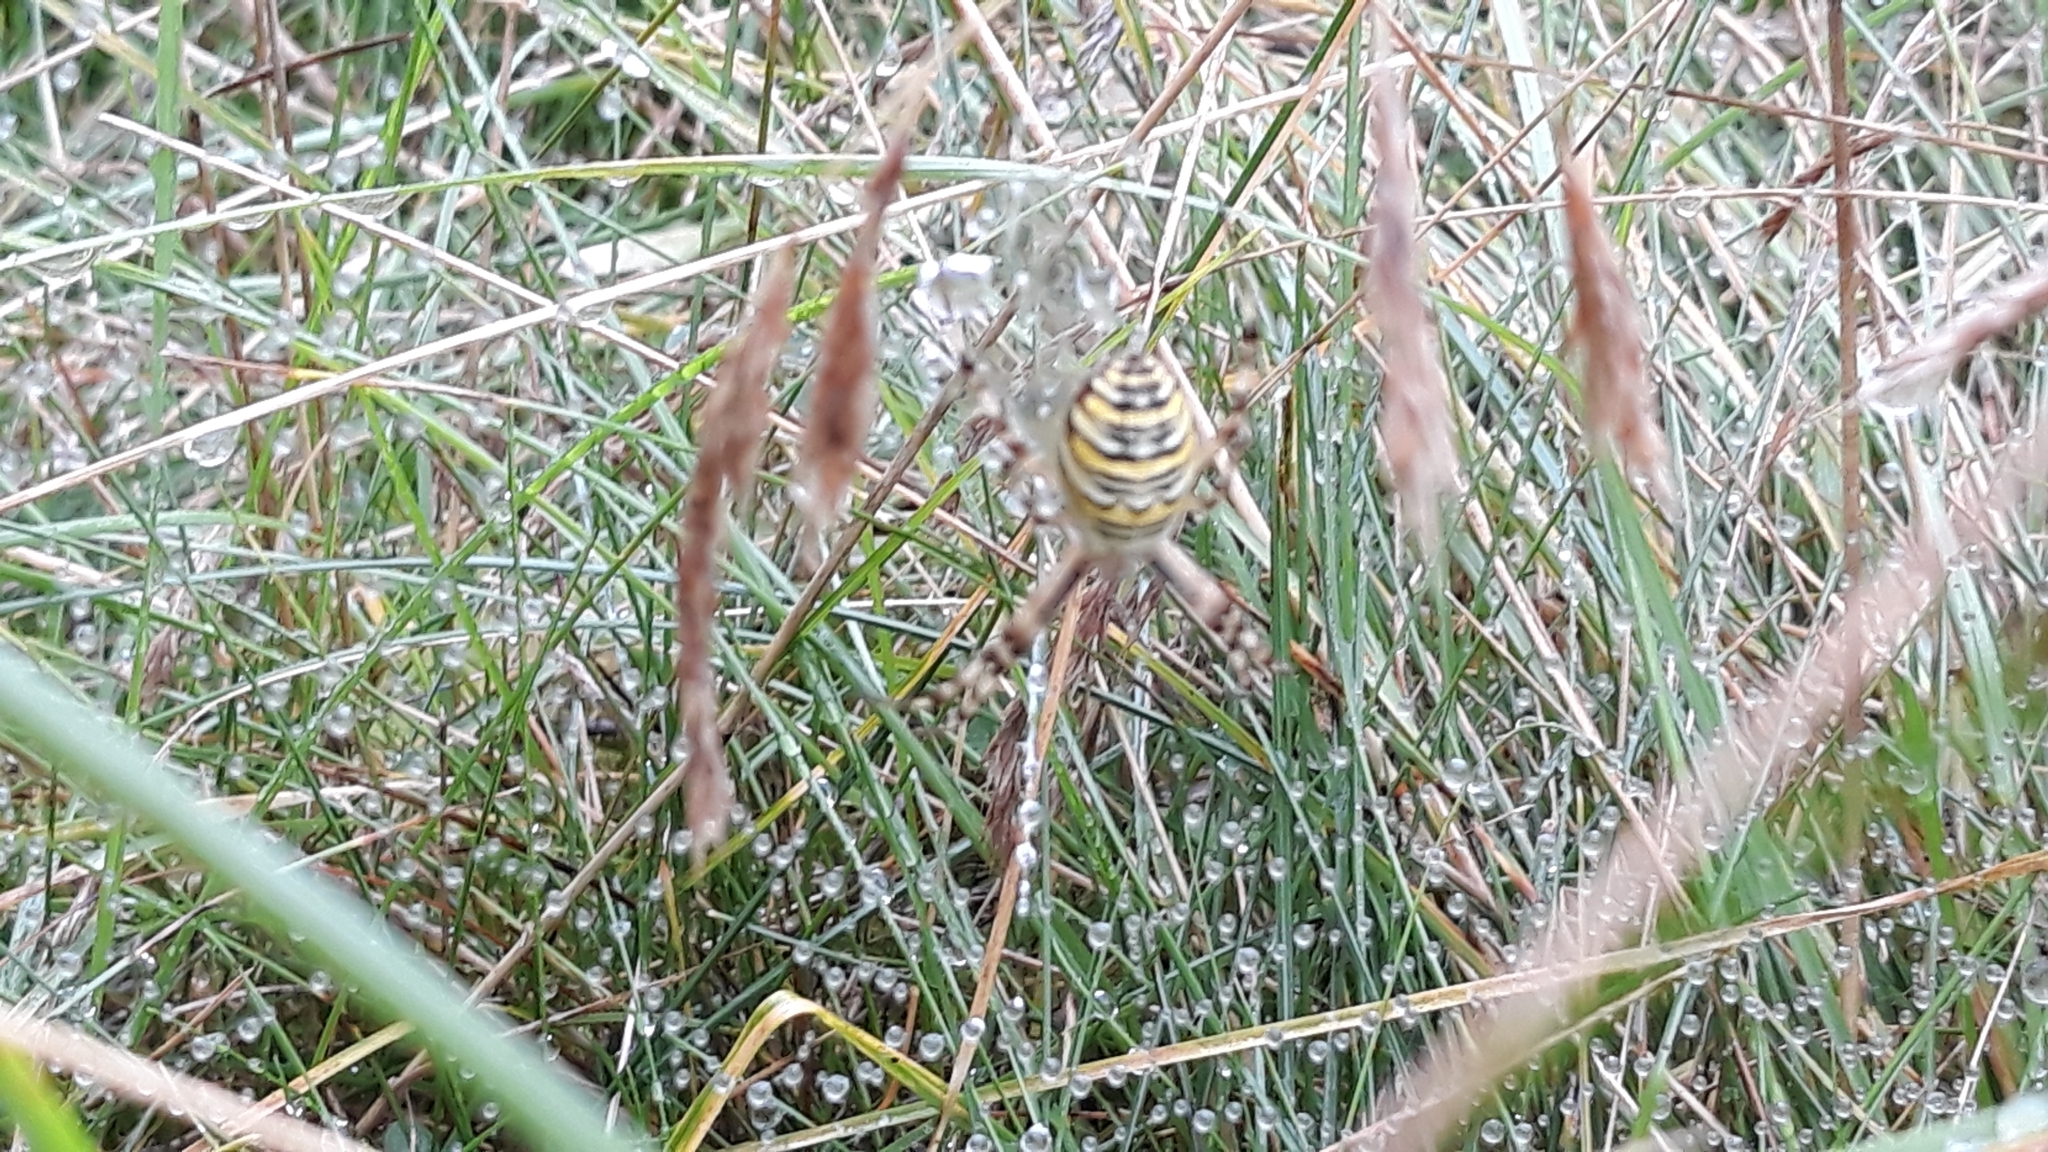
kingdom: Animalia
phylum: Arthropoda
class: Arachnida
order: Araneae
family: Araneidae
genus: Argiope
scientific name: Argiope bruennichi
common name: Wasp spider
